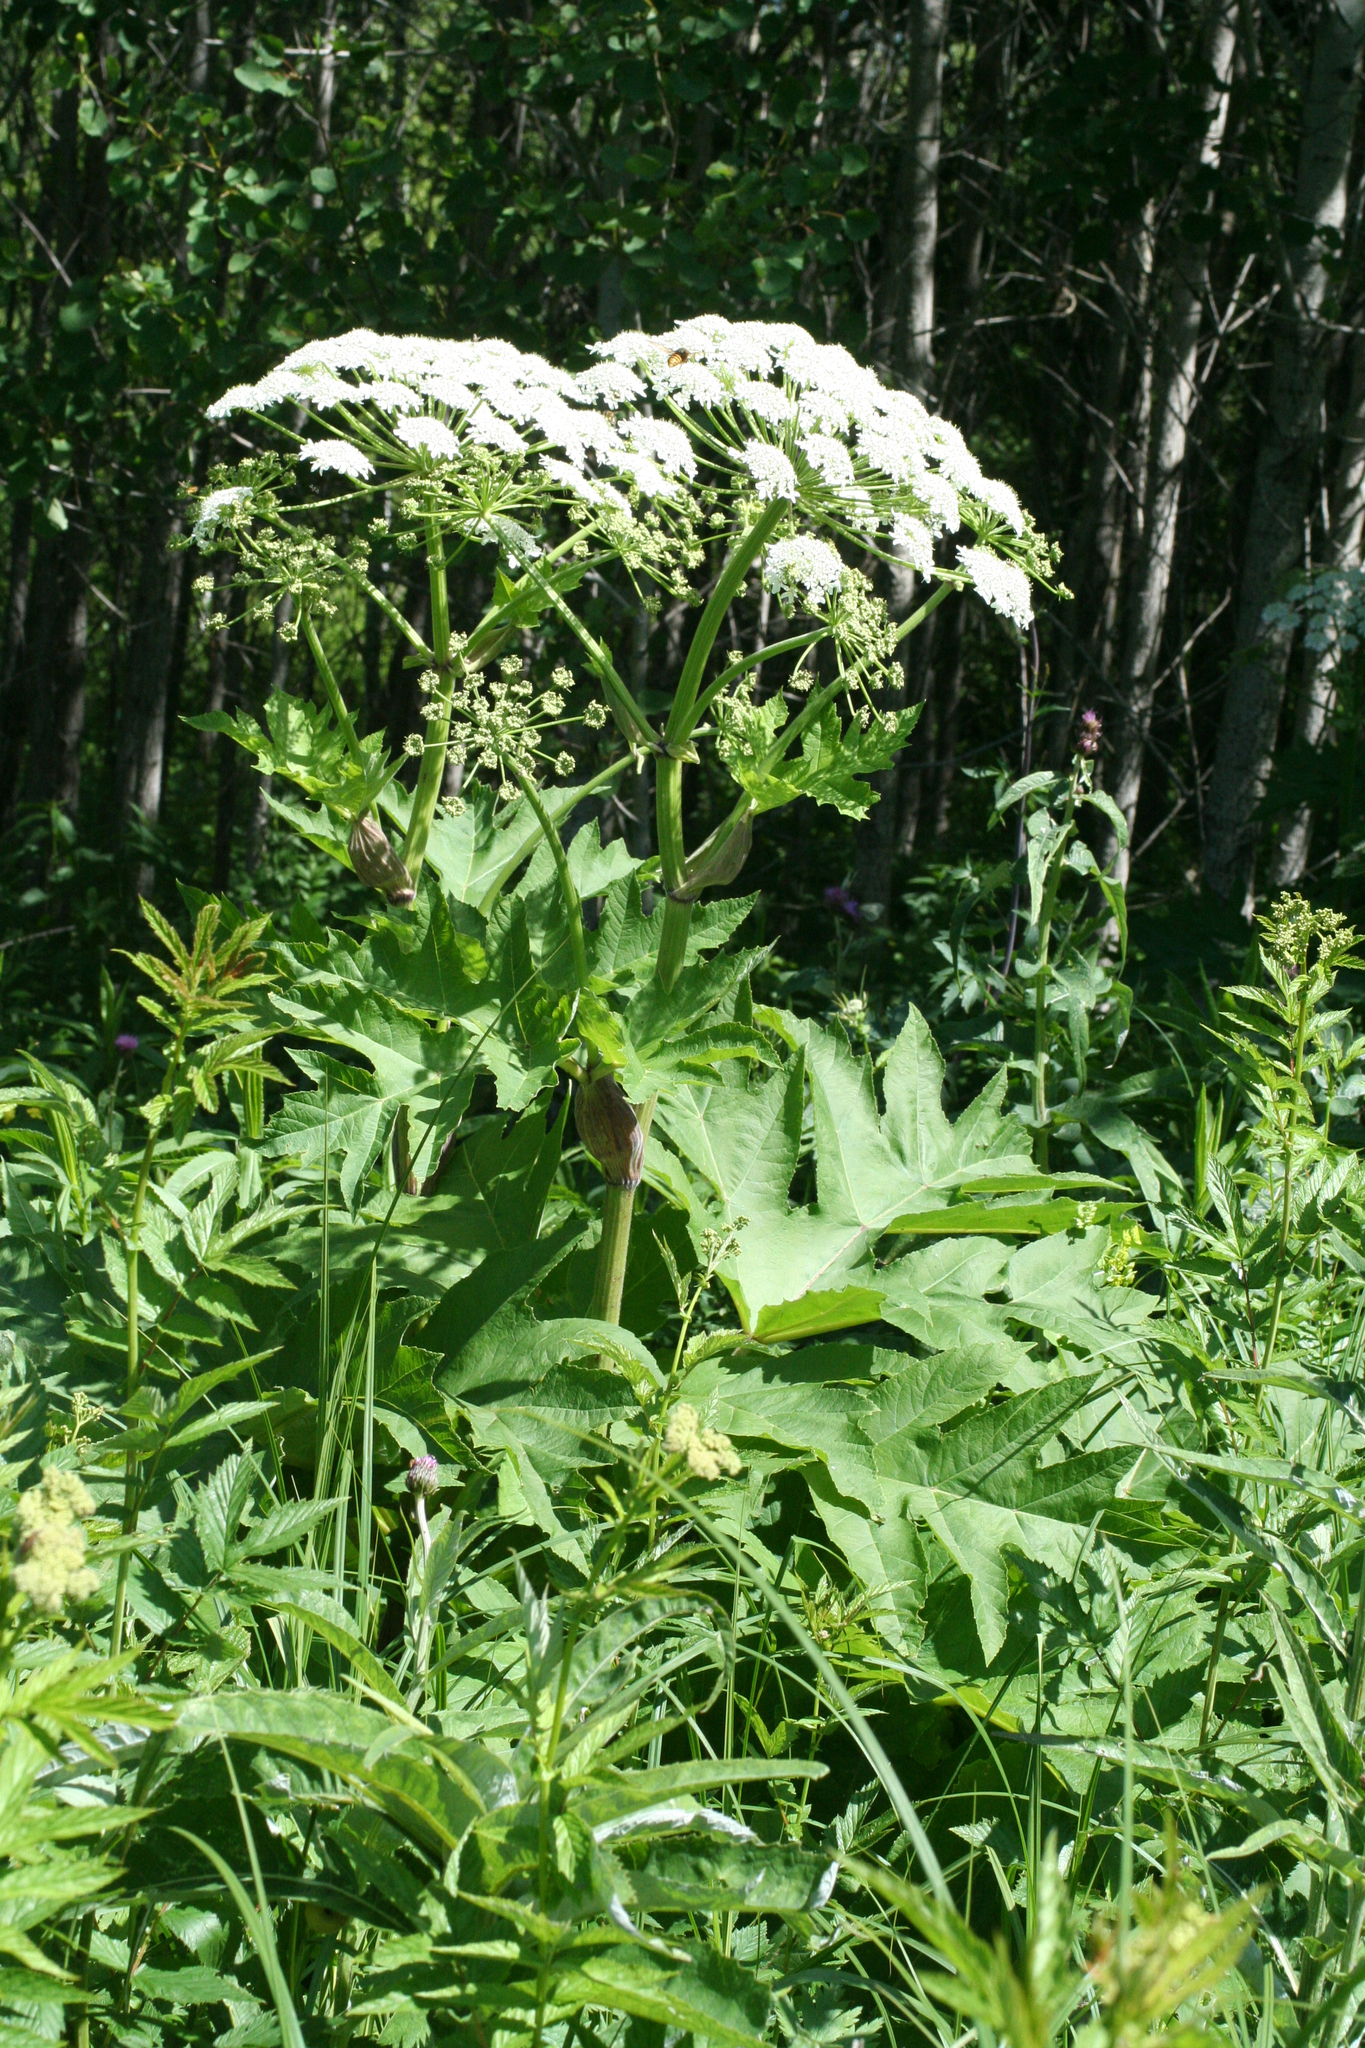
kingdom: Plantae
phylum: Tracheophyta
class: Magnoliopsida
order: Apiales
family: Apiaceae
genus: Heracleum
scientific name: Heracleum dissectum
